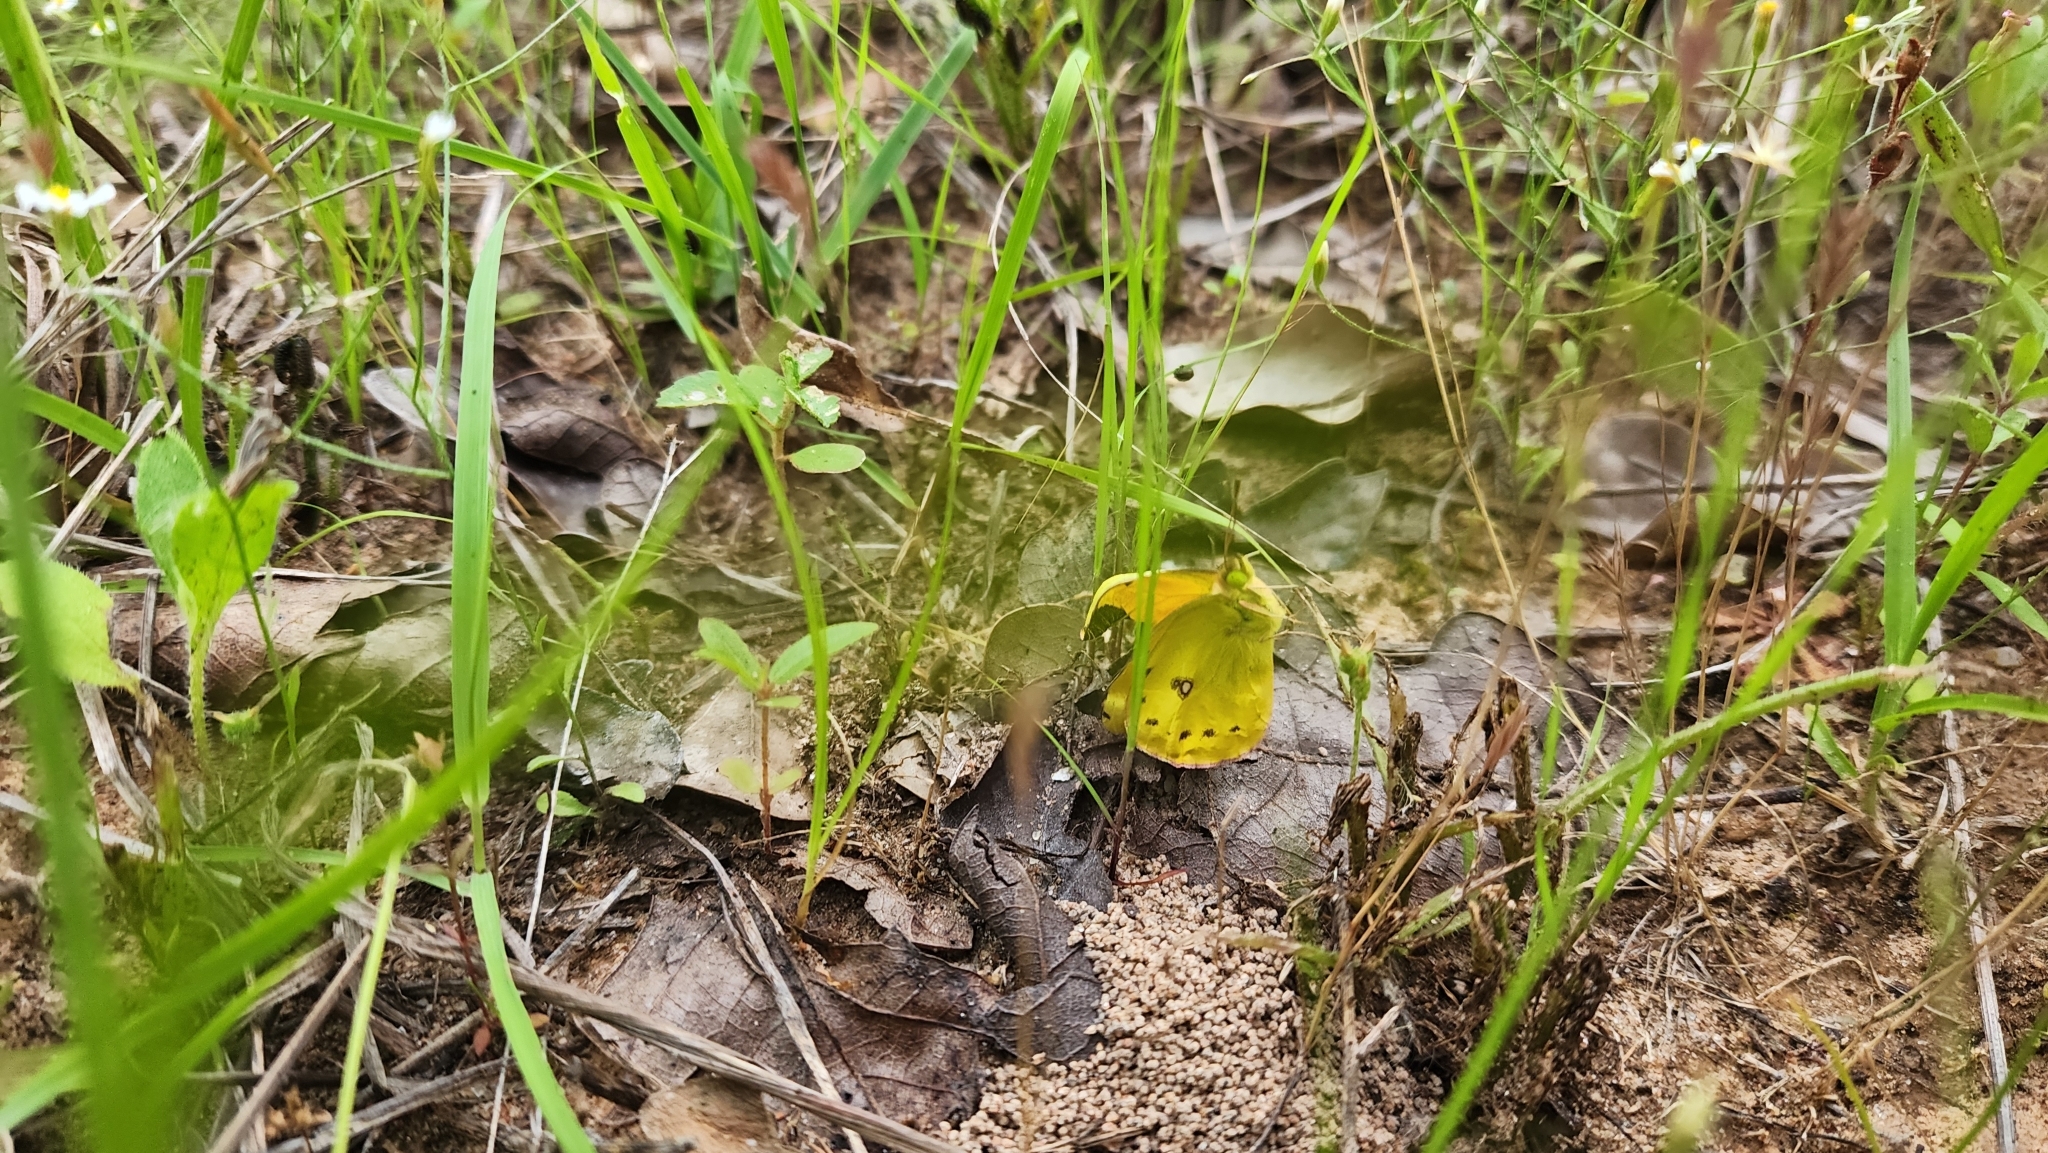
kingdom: Animalia
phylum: Arthropoda
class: Insecta
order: Lepidoptera
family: Pieridae
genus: Colias
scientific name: Colias eurytheme
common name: Alfalfa butterfly
